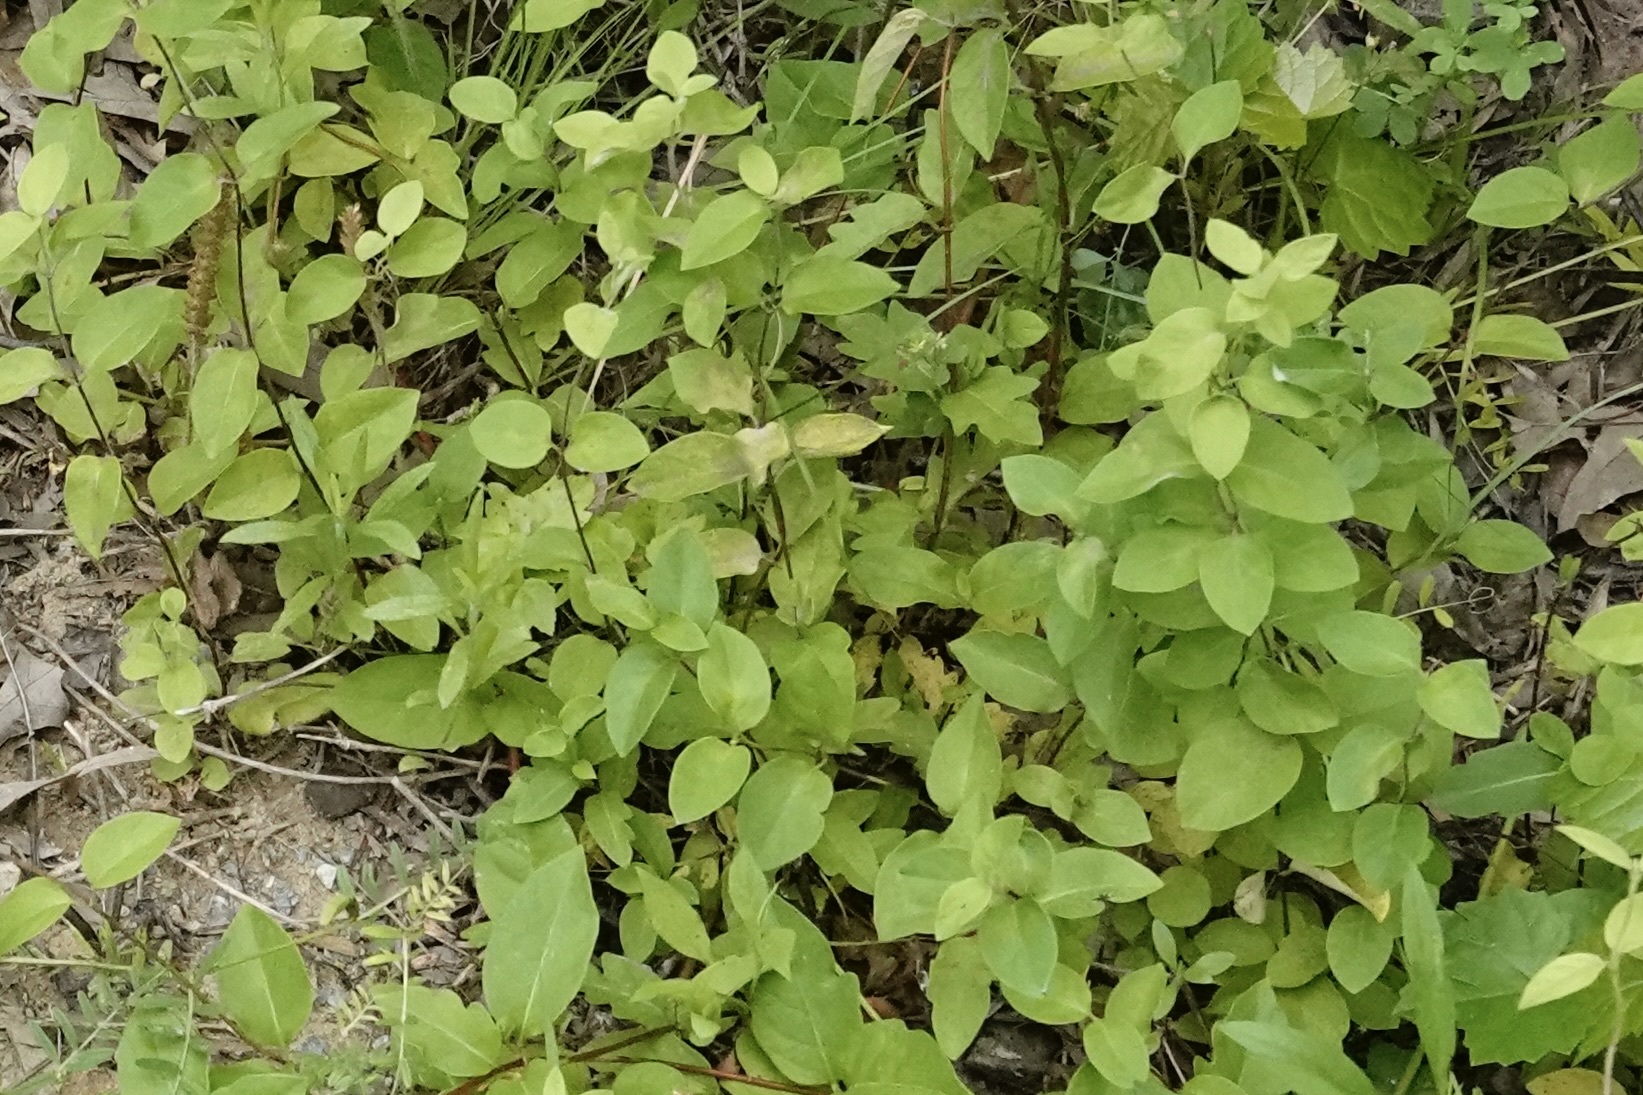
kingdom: Plantae
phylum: Tracheophyta
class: Magnoliopsida
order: Dipsacales
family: Caprifoliaceae
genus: Lonicera
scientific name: Lonicera japonica
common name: Japanese honeysuckle
